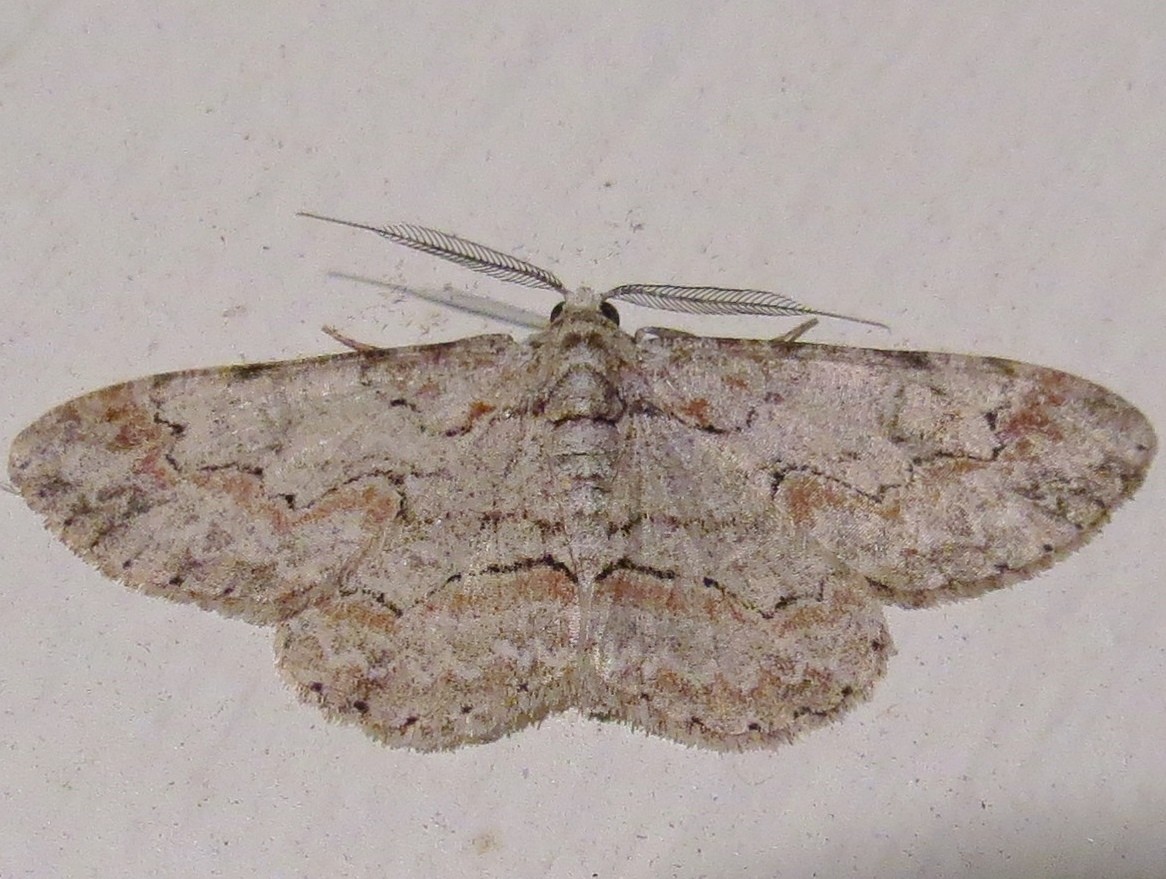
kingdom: Animalia
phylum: Arthropoda
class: Insecta
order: Lepidoptera
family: Geometridae
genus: Iridopsis
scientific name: Iridopsis defectaria
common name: Brown-shaded gray
